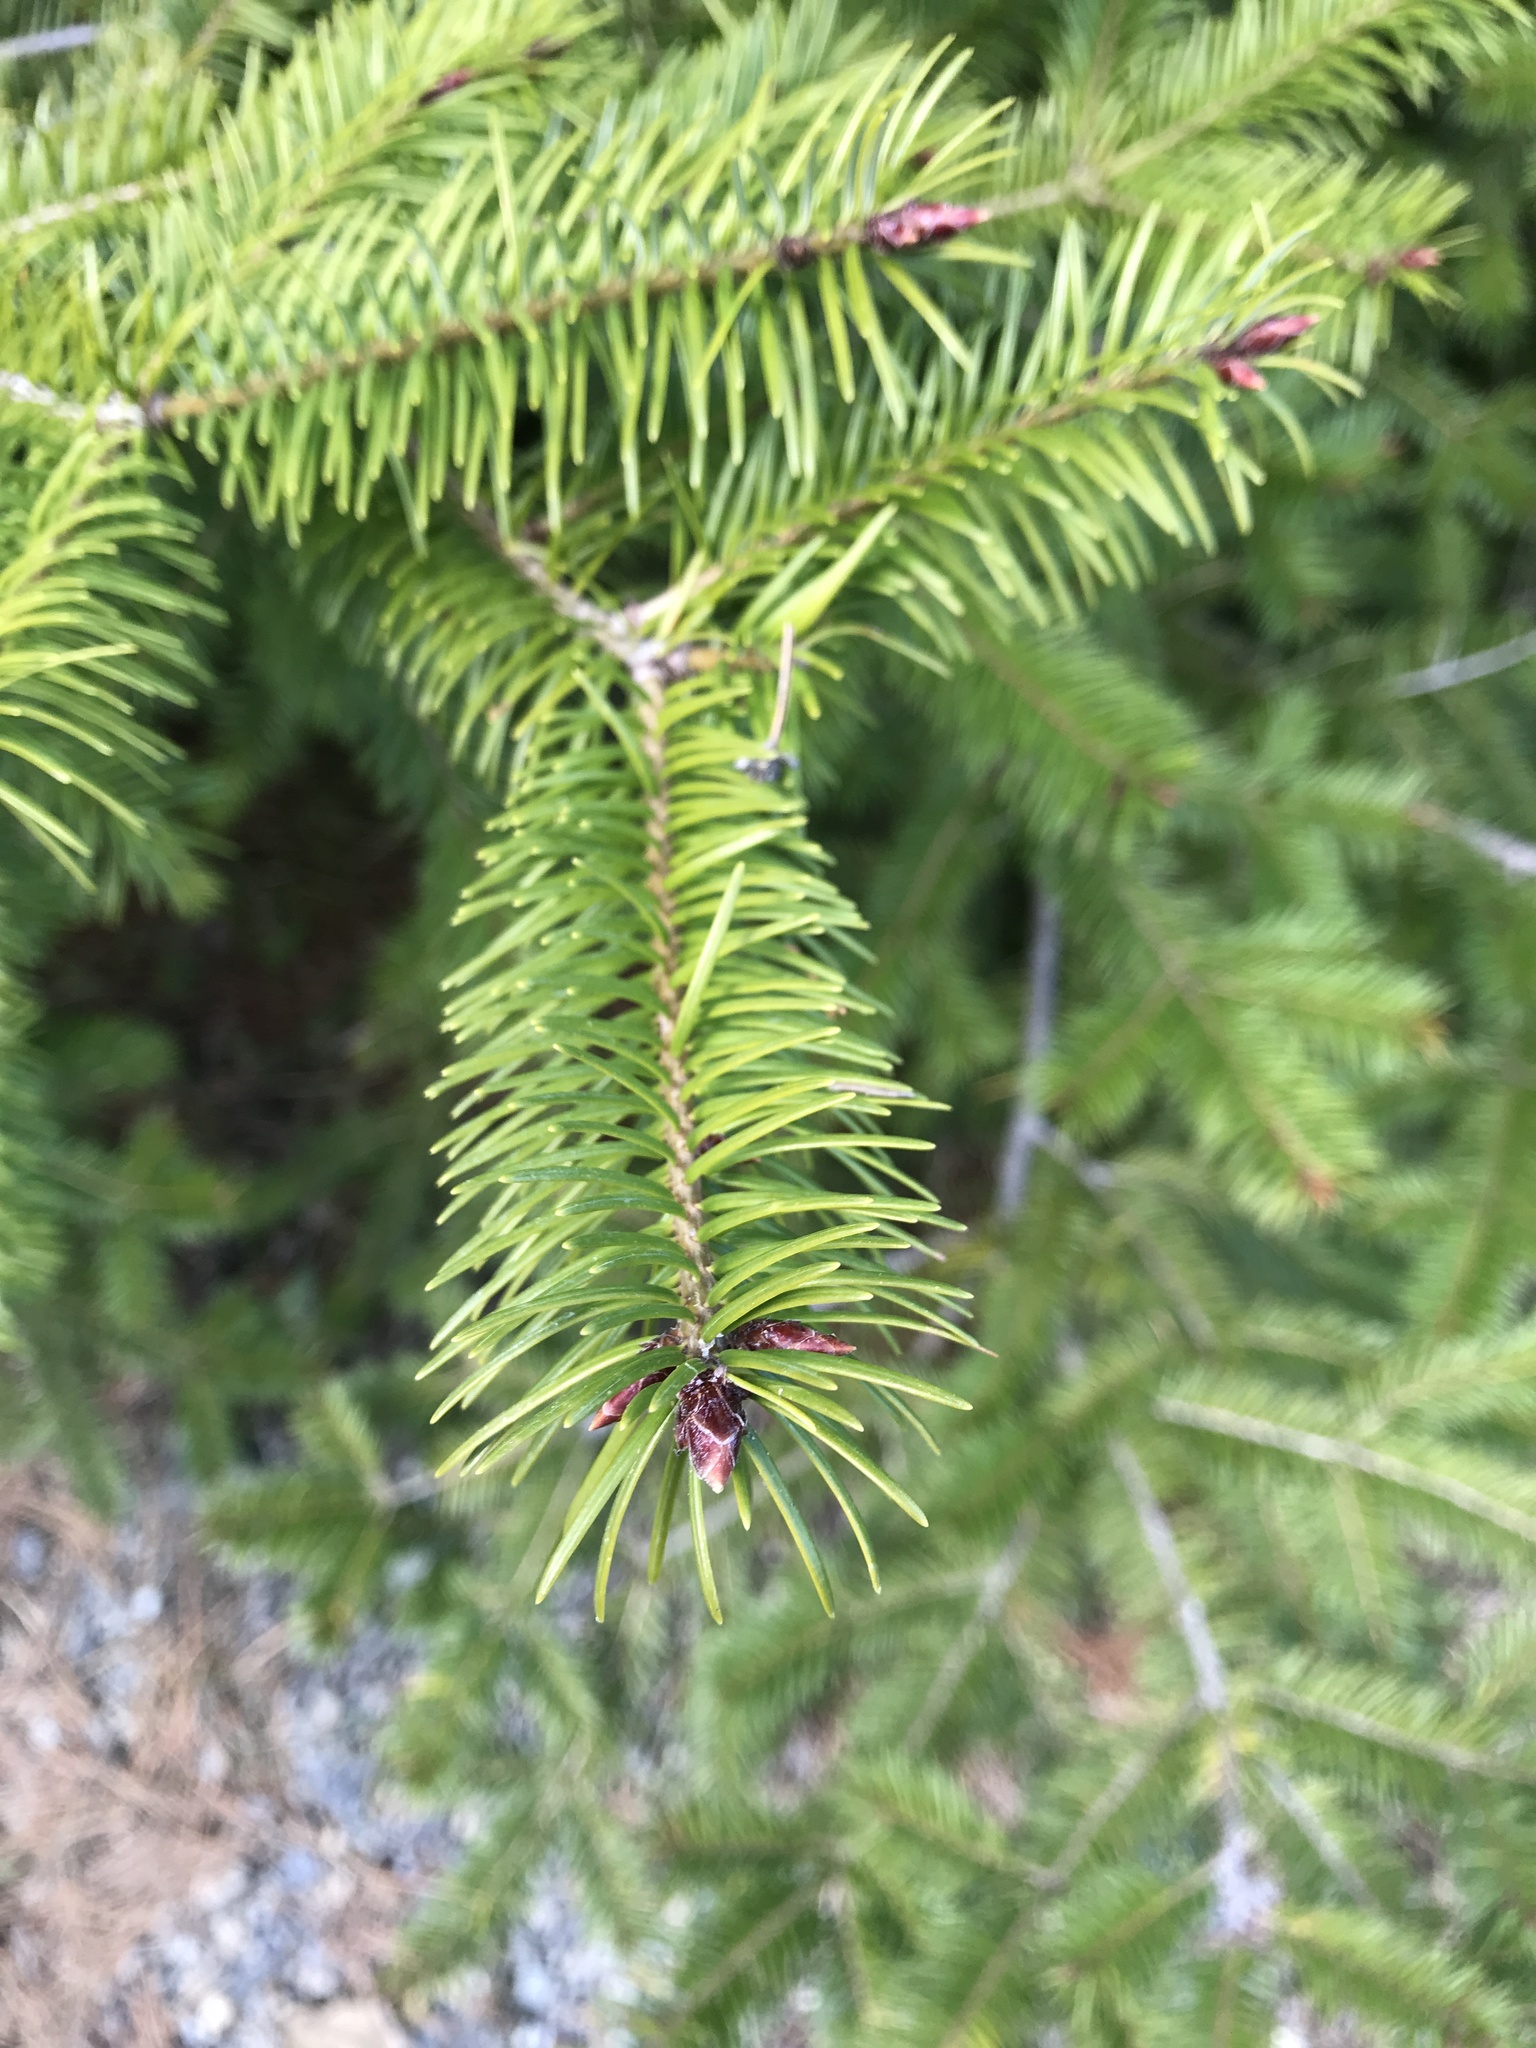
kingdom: Plantae
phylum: Tracheophyta
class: Pinopsida
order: Pinales
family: Pinaceae
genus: Pseudotsuga
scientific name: Pseudotsuga menziesii
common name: Douglas fir
